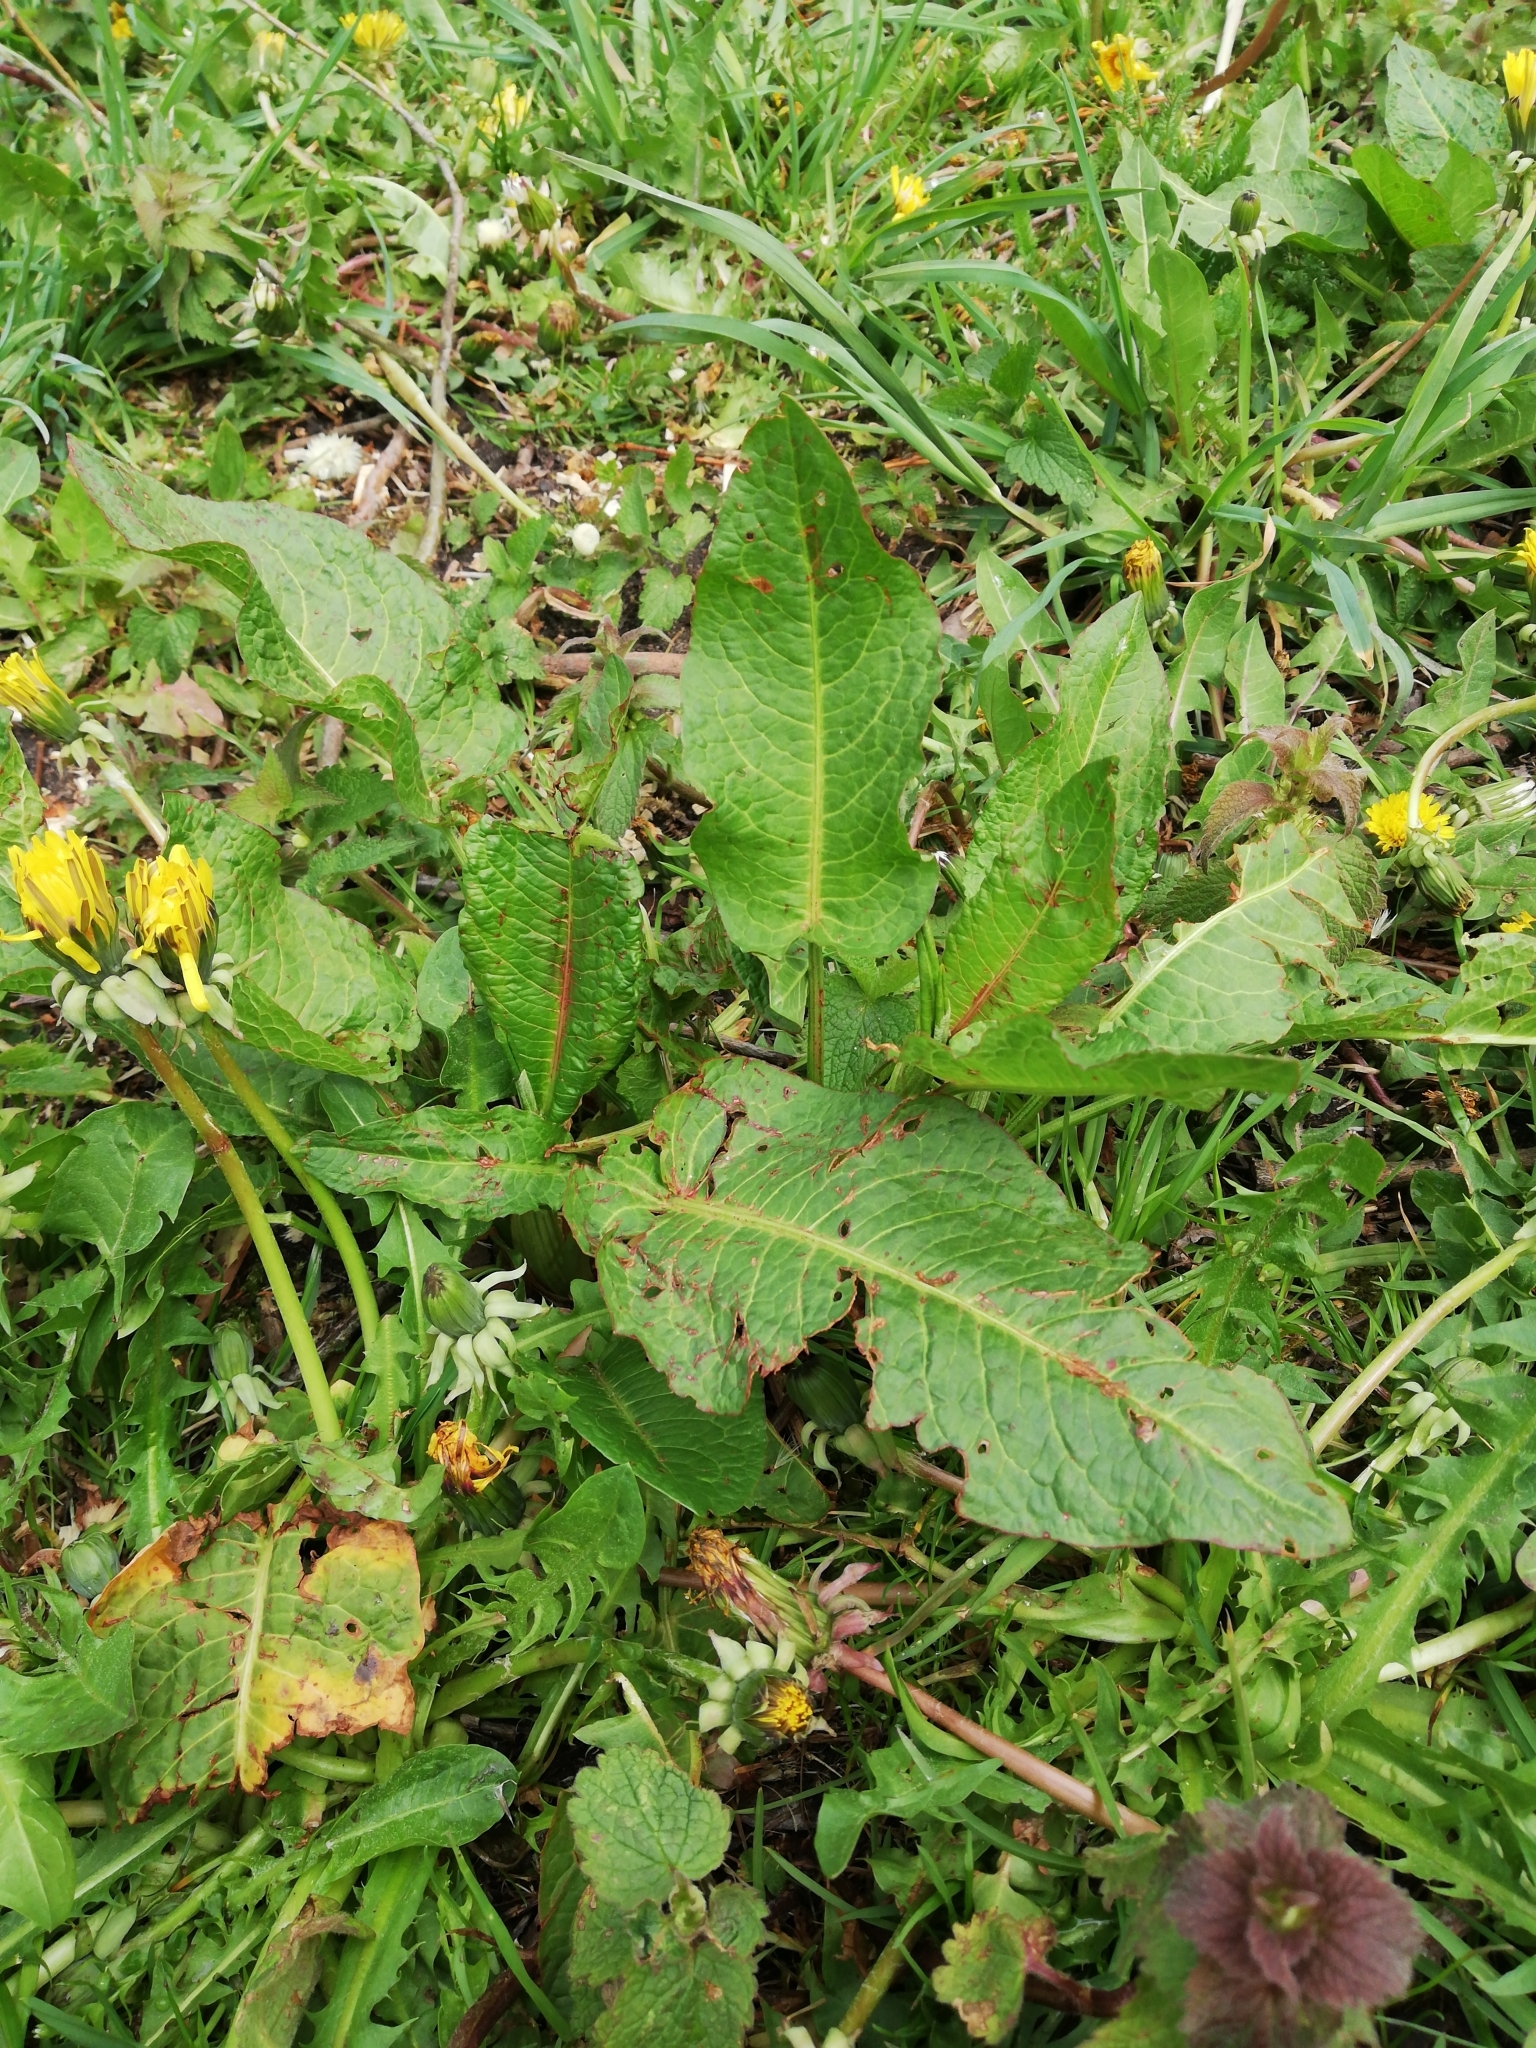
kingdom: Plantae
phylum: Tracheophyta
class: Magnoliopsida
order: Caryophyllales
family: Polygonaceae
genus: Rumex
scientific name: Rumex obtusifolius
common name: Bitter dock
